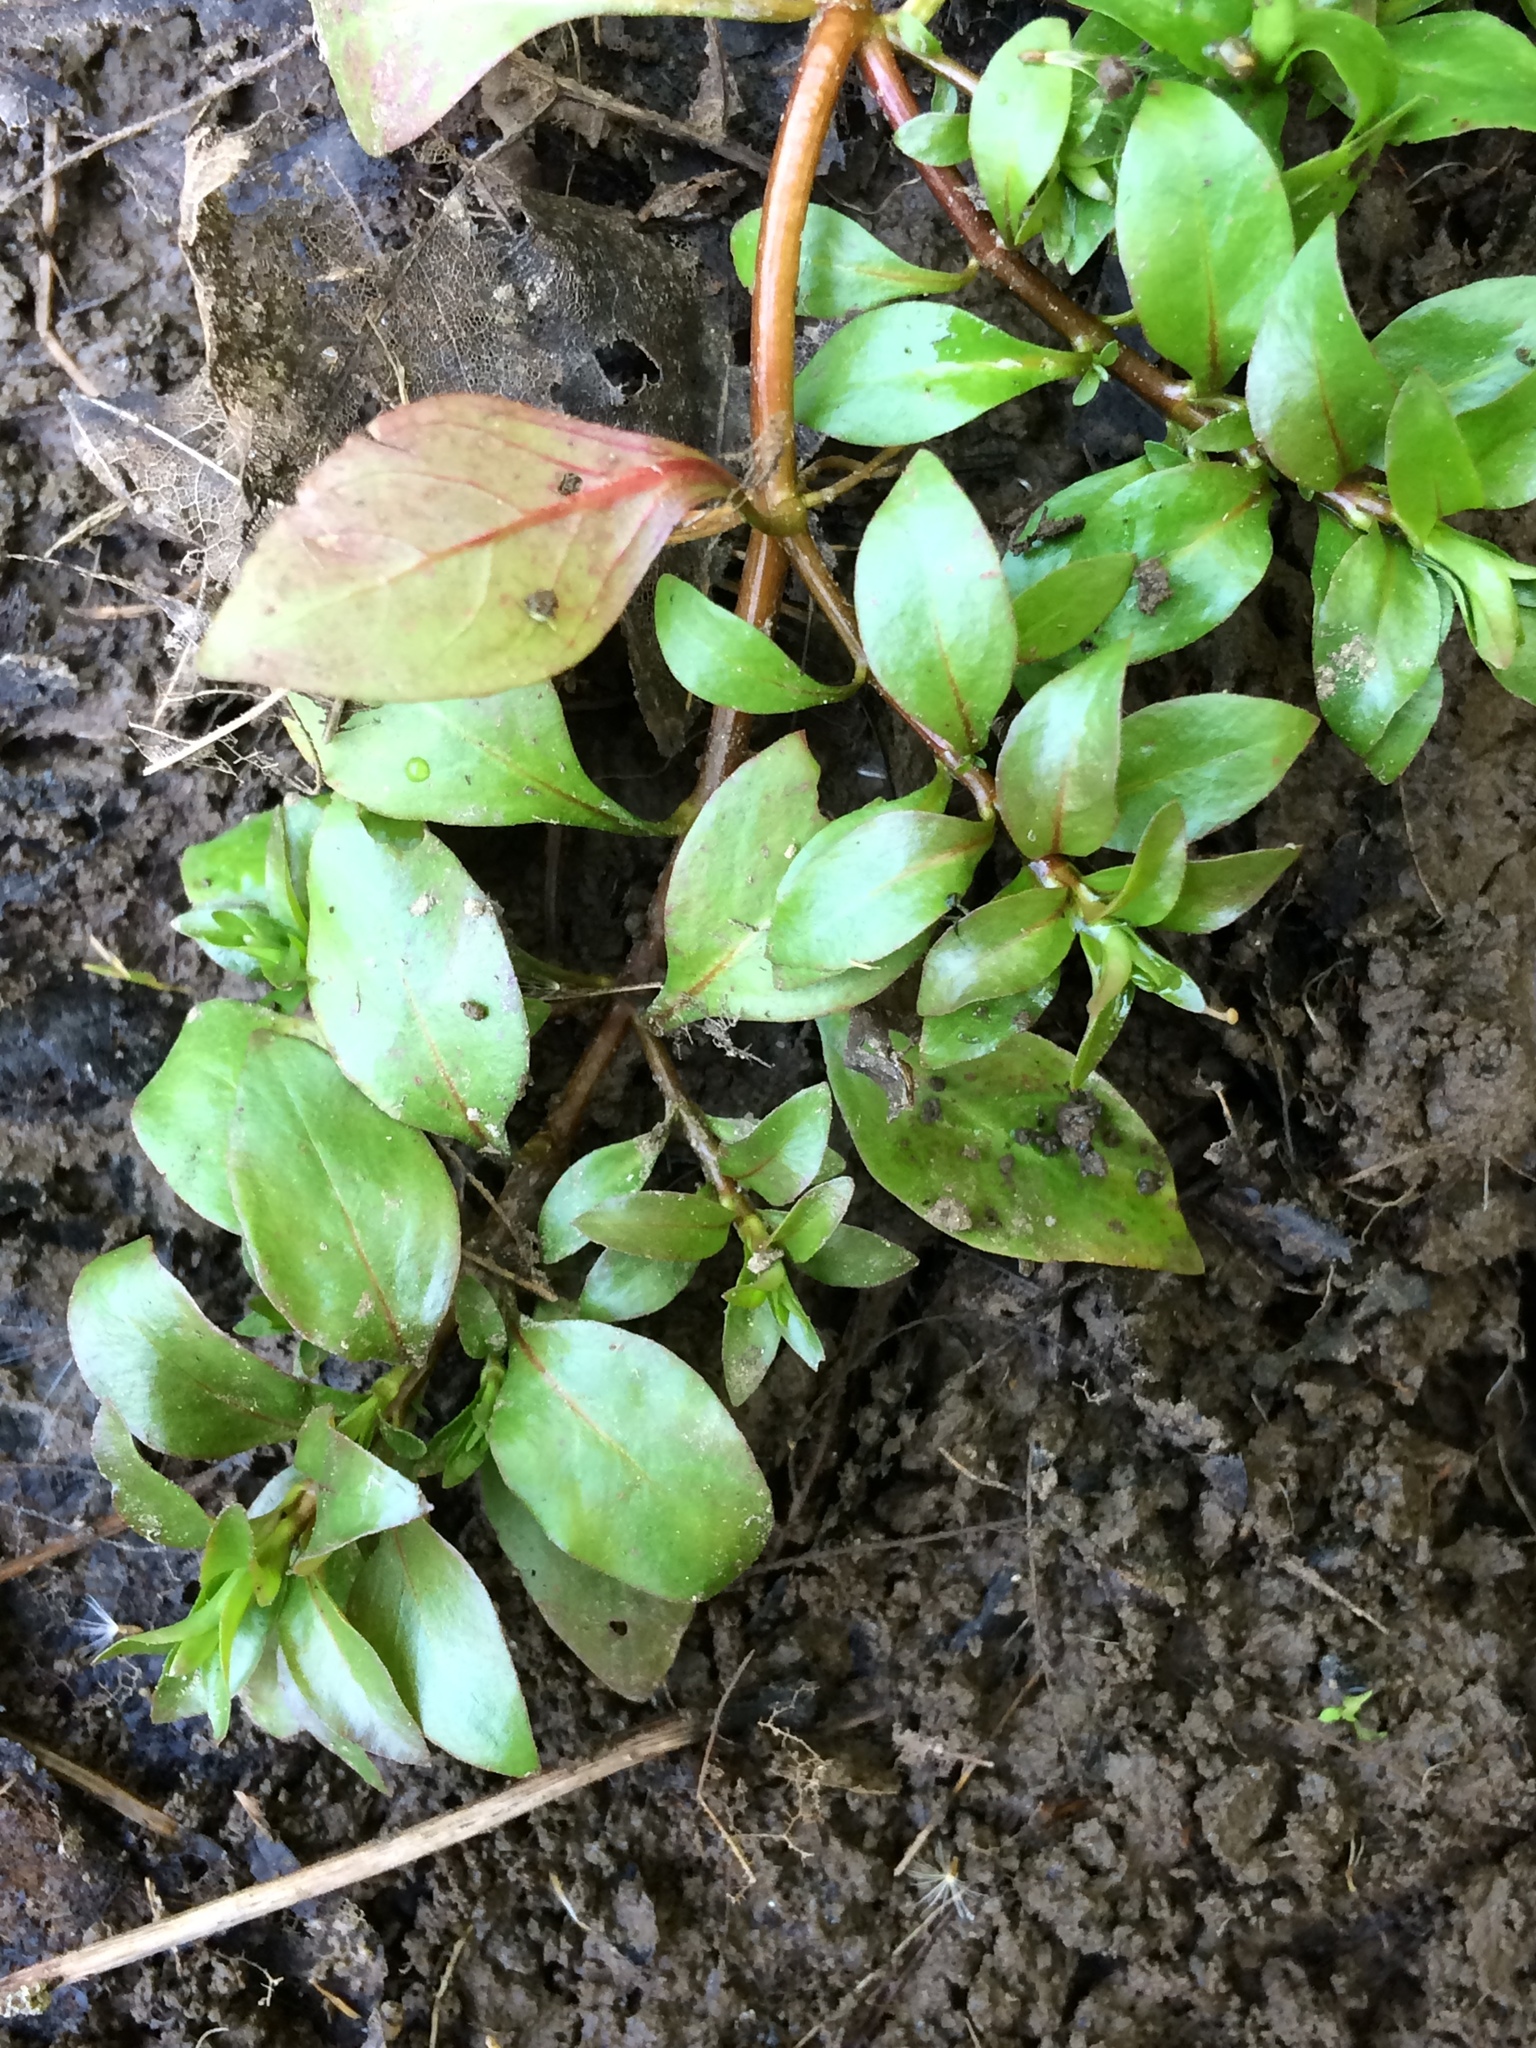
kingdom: Plantae
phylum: Tracheophyta
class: Magnoliopsida
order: Myrtales
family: Onagraceae
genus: Ludwigia
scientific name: Ludwigia palustris
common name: Hampshire-purslane
